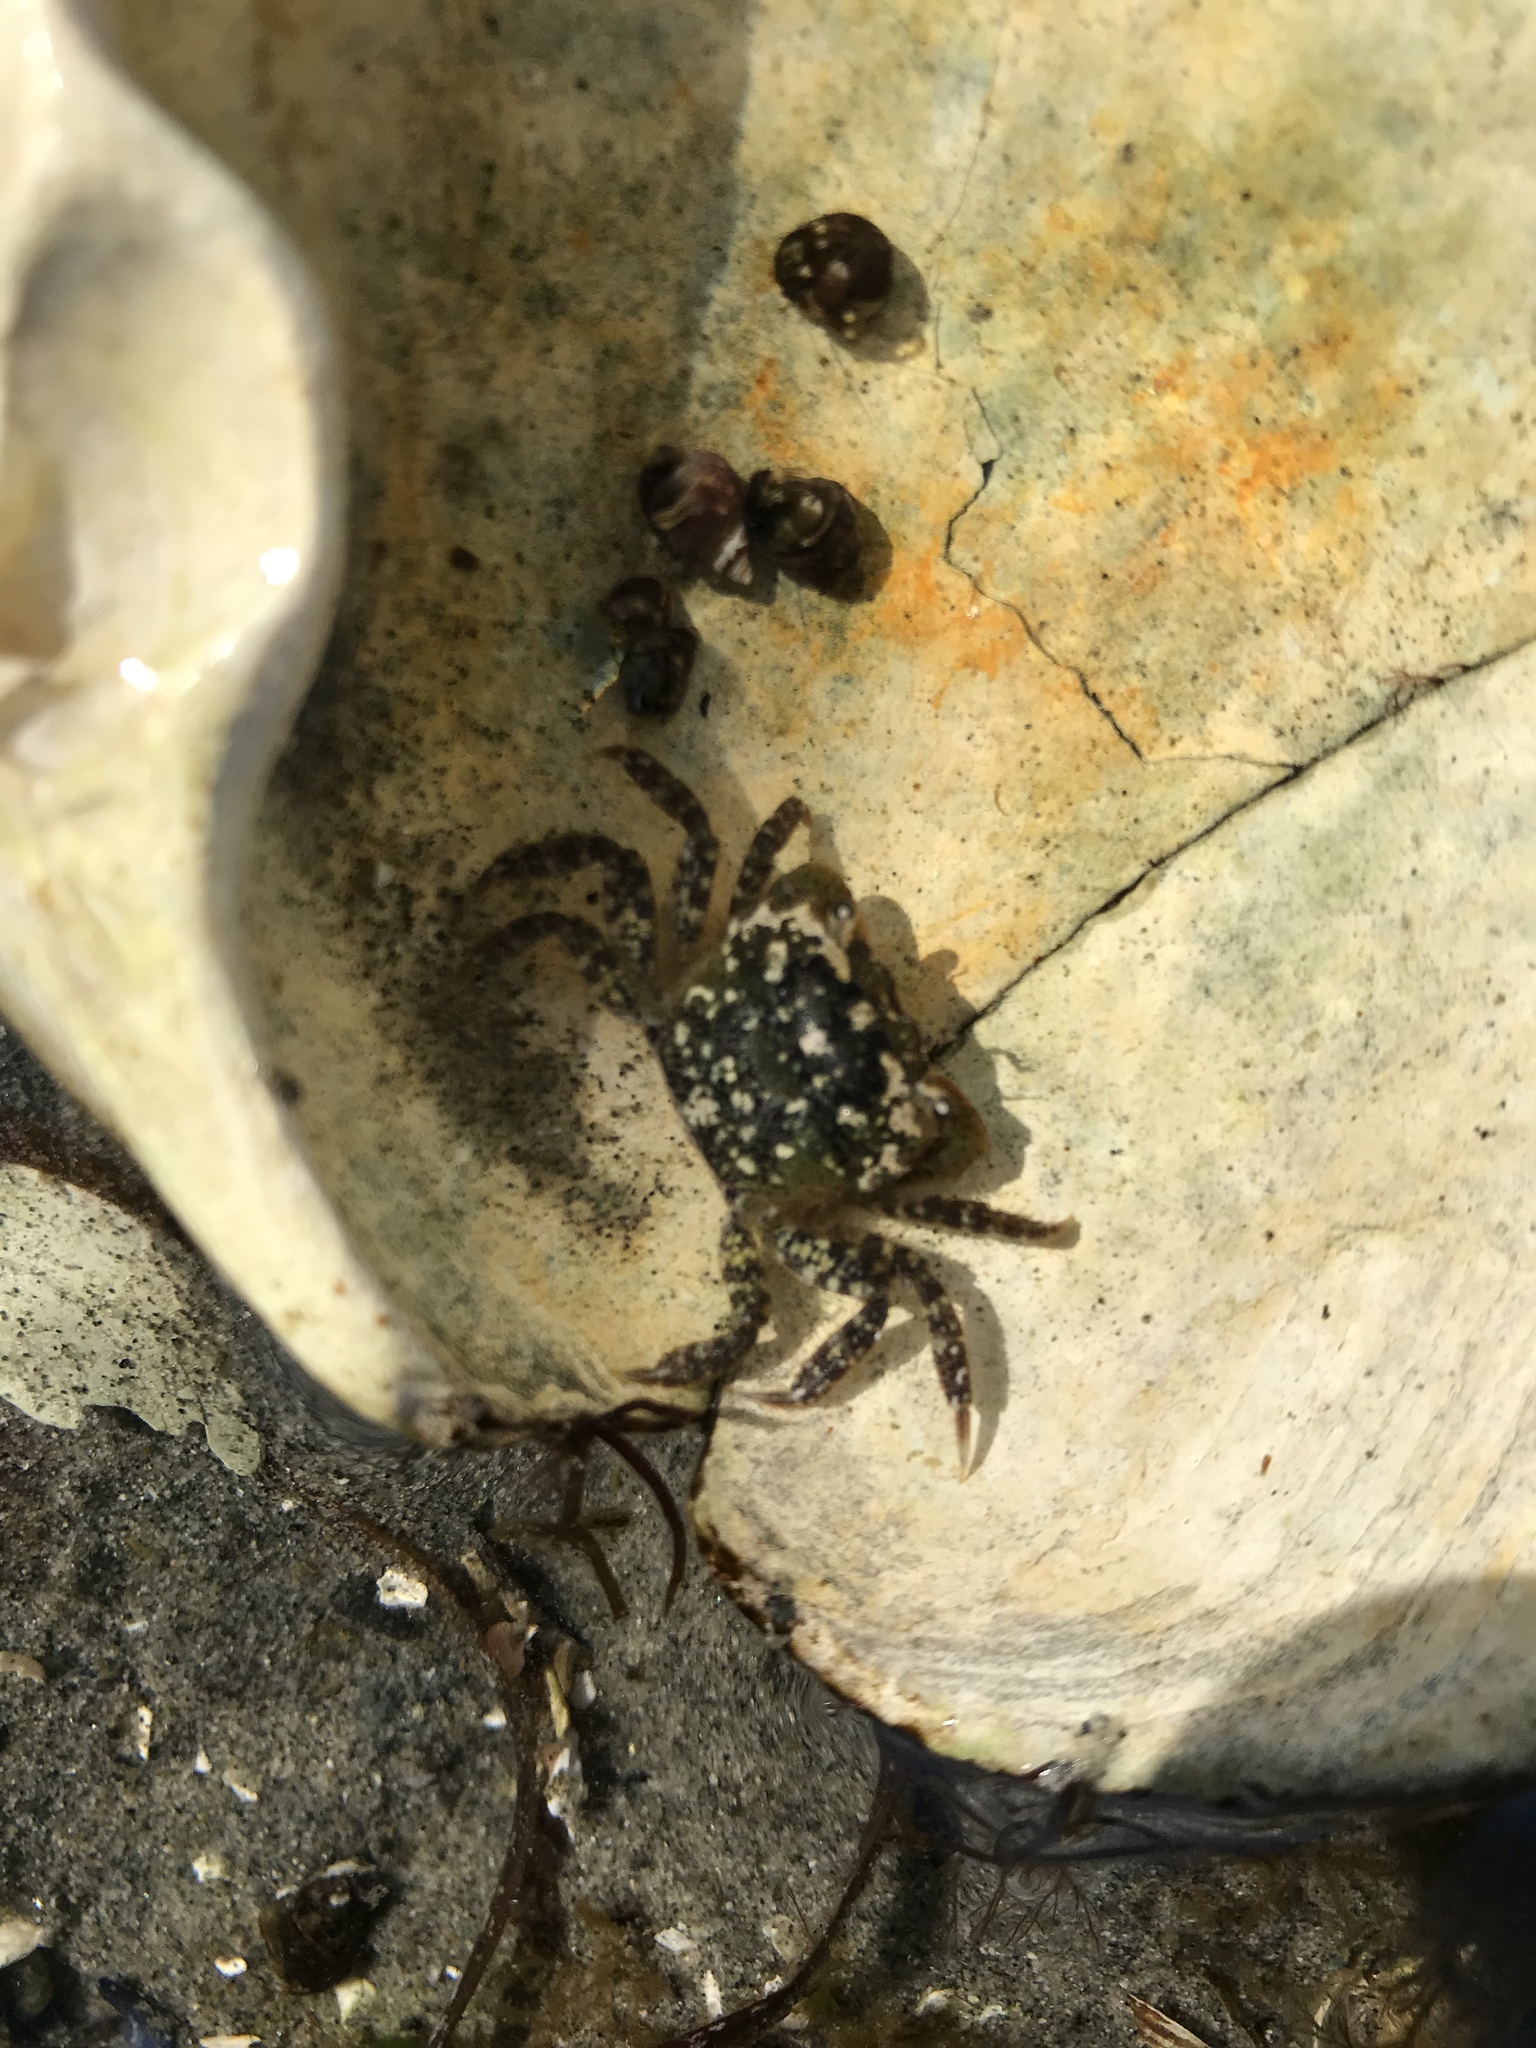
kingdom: Animalia
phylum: Arthropoda
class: Malacostraca
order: Decapoda
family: Varunidae
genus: Hemigrapsus
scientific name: Hemigrapsus oregonensis
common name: Yellow shore crab
